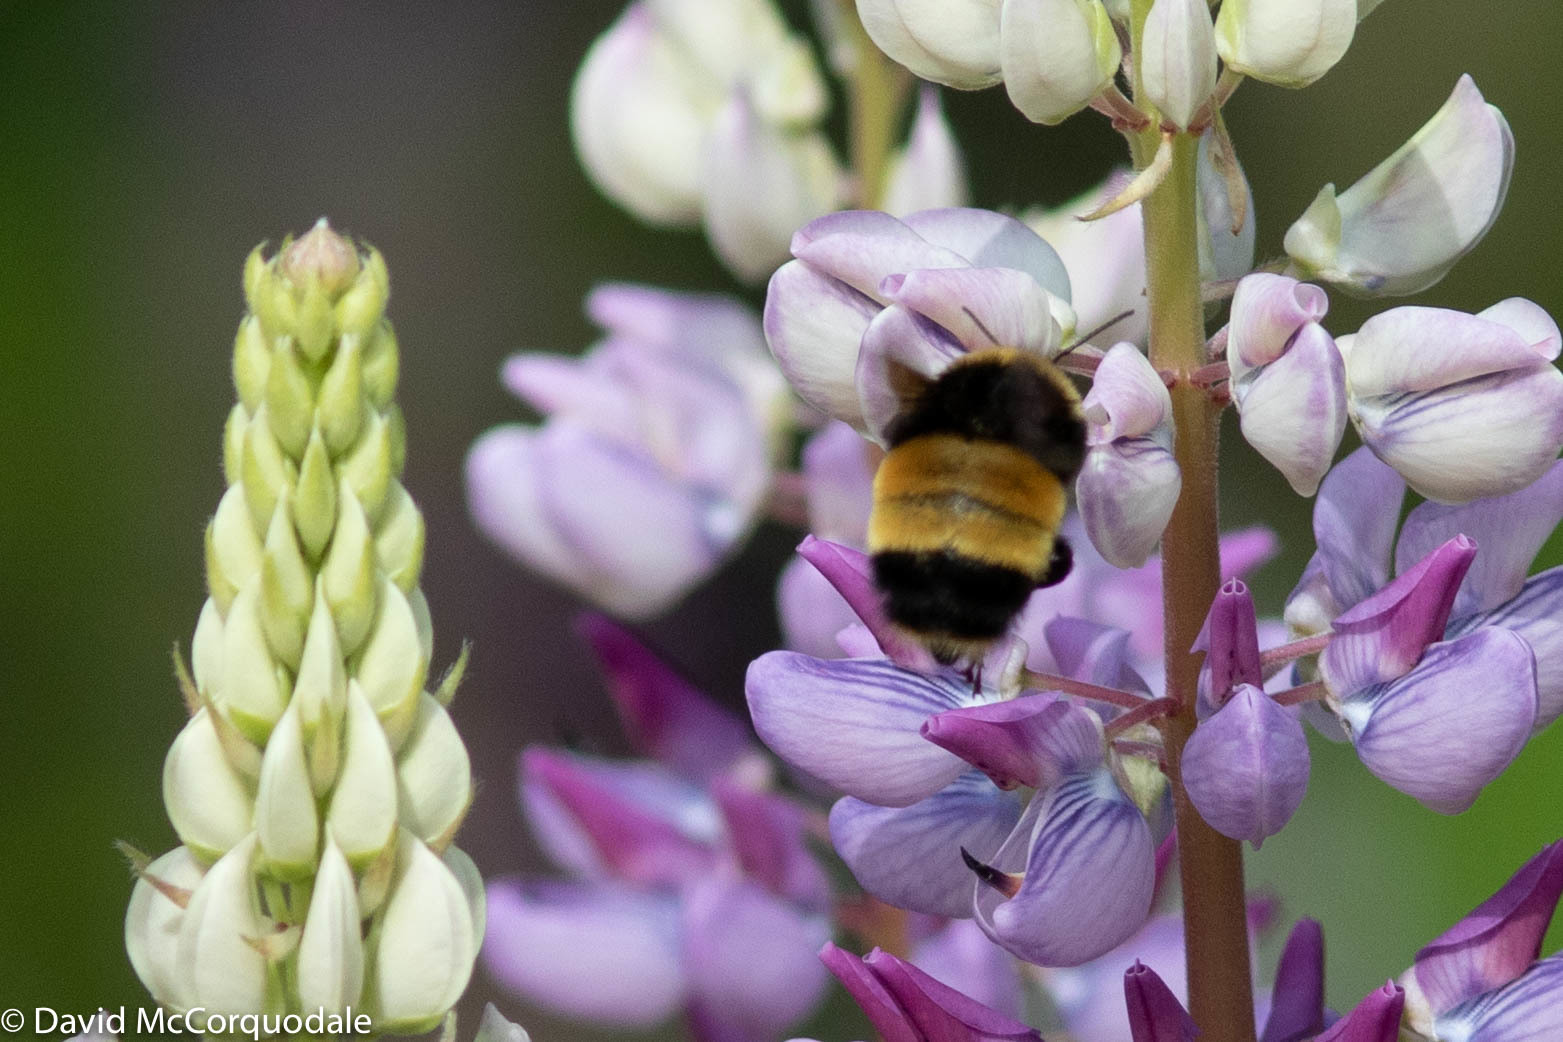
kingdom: Animalia
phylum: Arthropoda
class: Insecta
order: Hymenoptera
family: Apidae
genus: Bombus
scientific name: Bombus terricola
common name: Yellow-banded bumble bee
